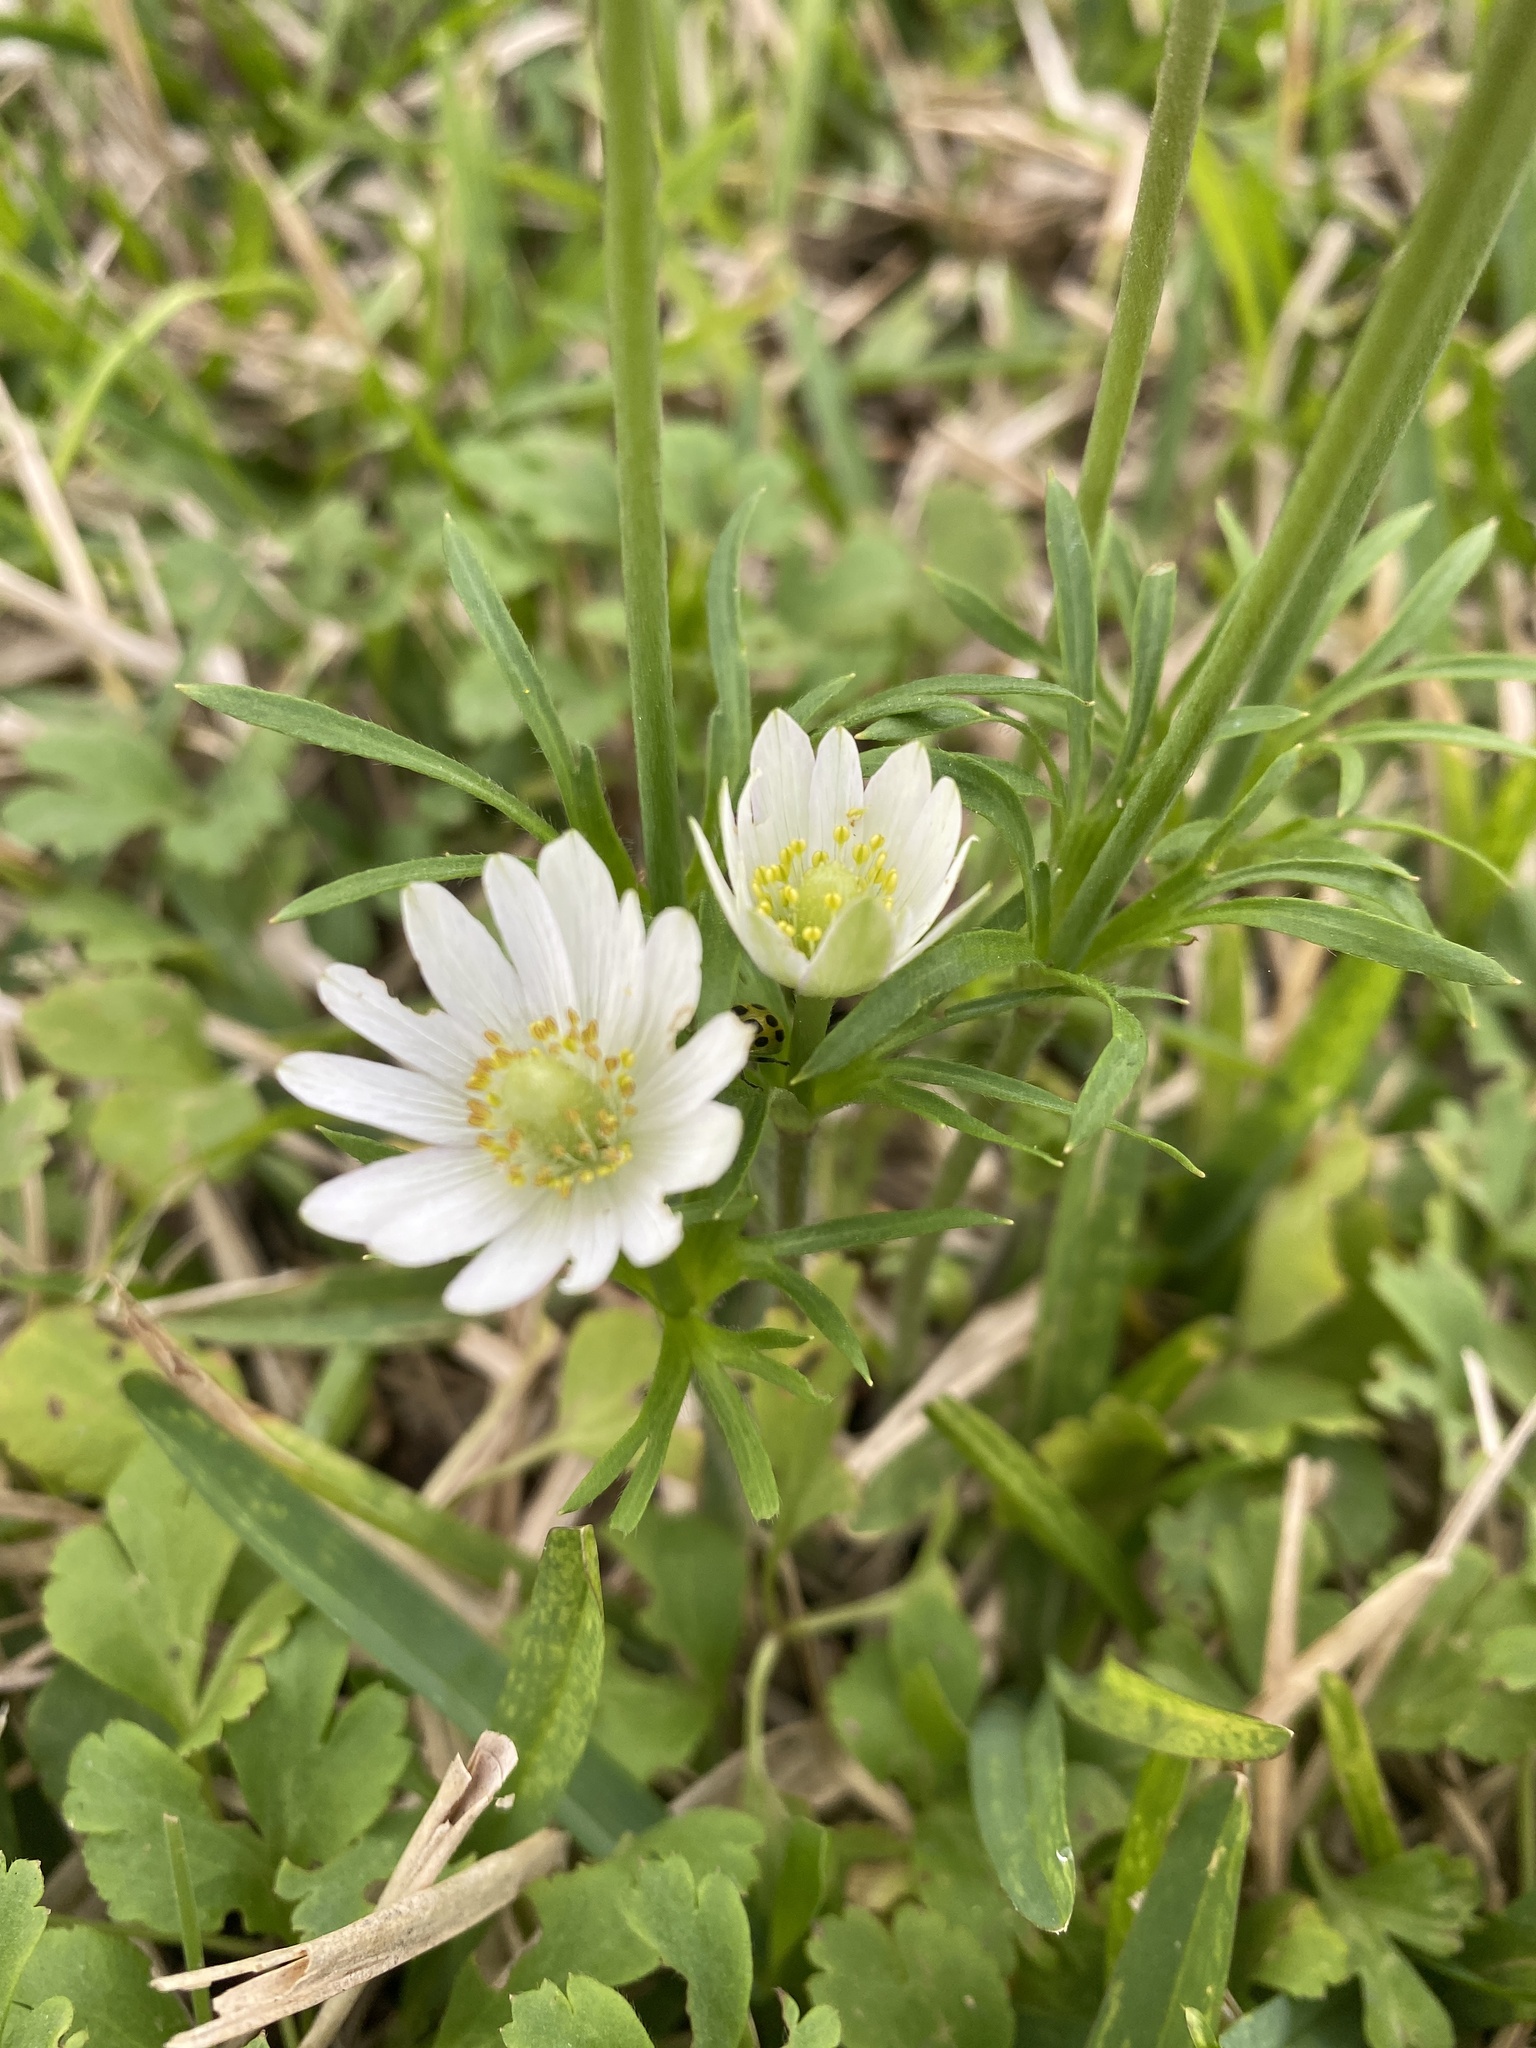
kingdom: Plantae
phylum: Tracheophyta
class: Magnoliopsida
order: Ranunculales
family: Ranunculaceae
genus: Anemone
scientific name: Anemone berlandieri
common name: Ten-petal anemone
